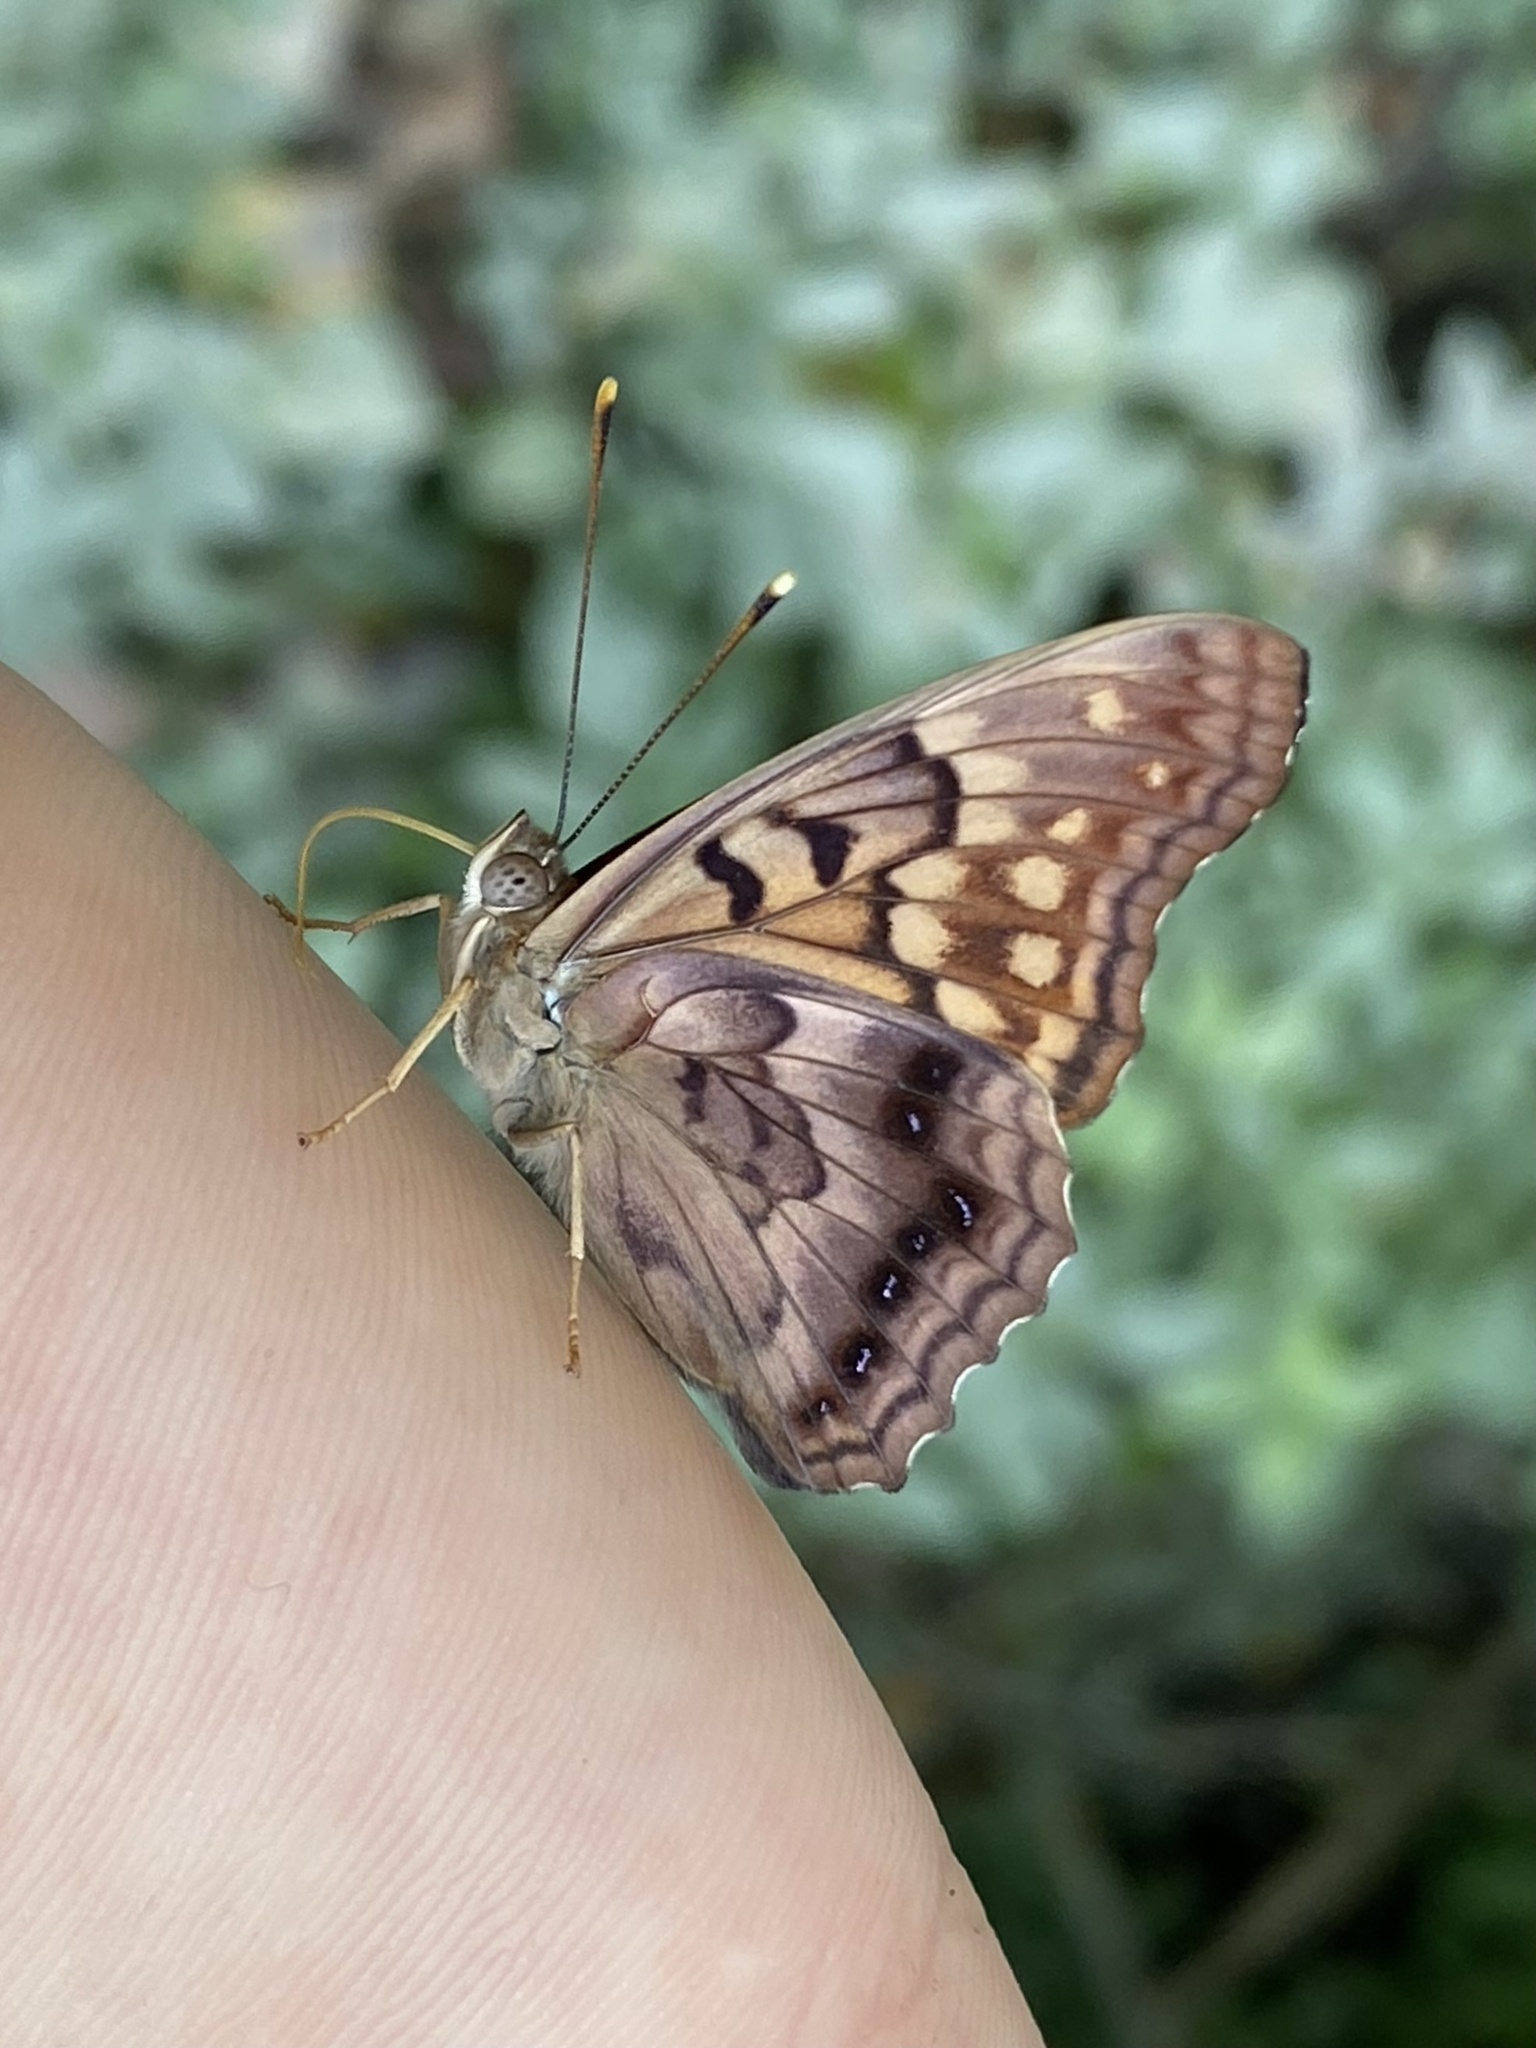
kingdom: Animalia
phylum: Arthropoda
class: Insecta
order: Lepidoptera
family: Nymphalidae
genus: Asterocampa
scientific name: Asterocampa clyton
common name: Tawny emperor
